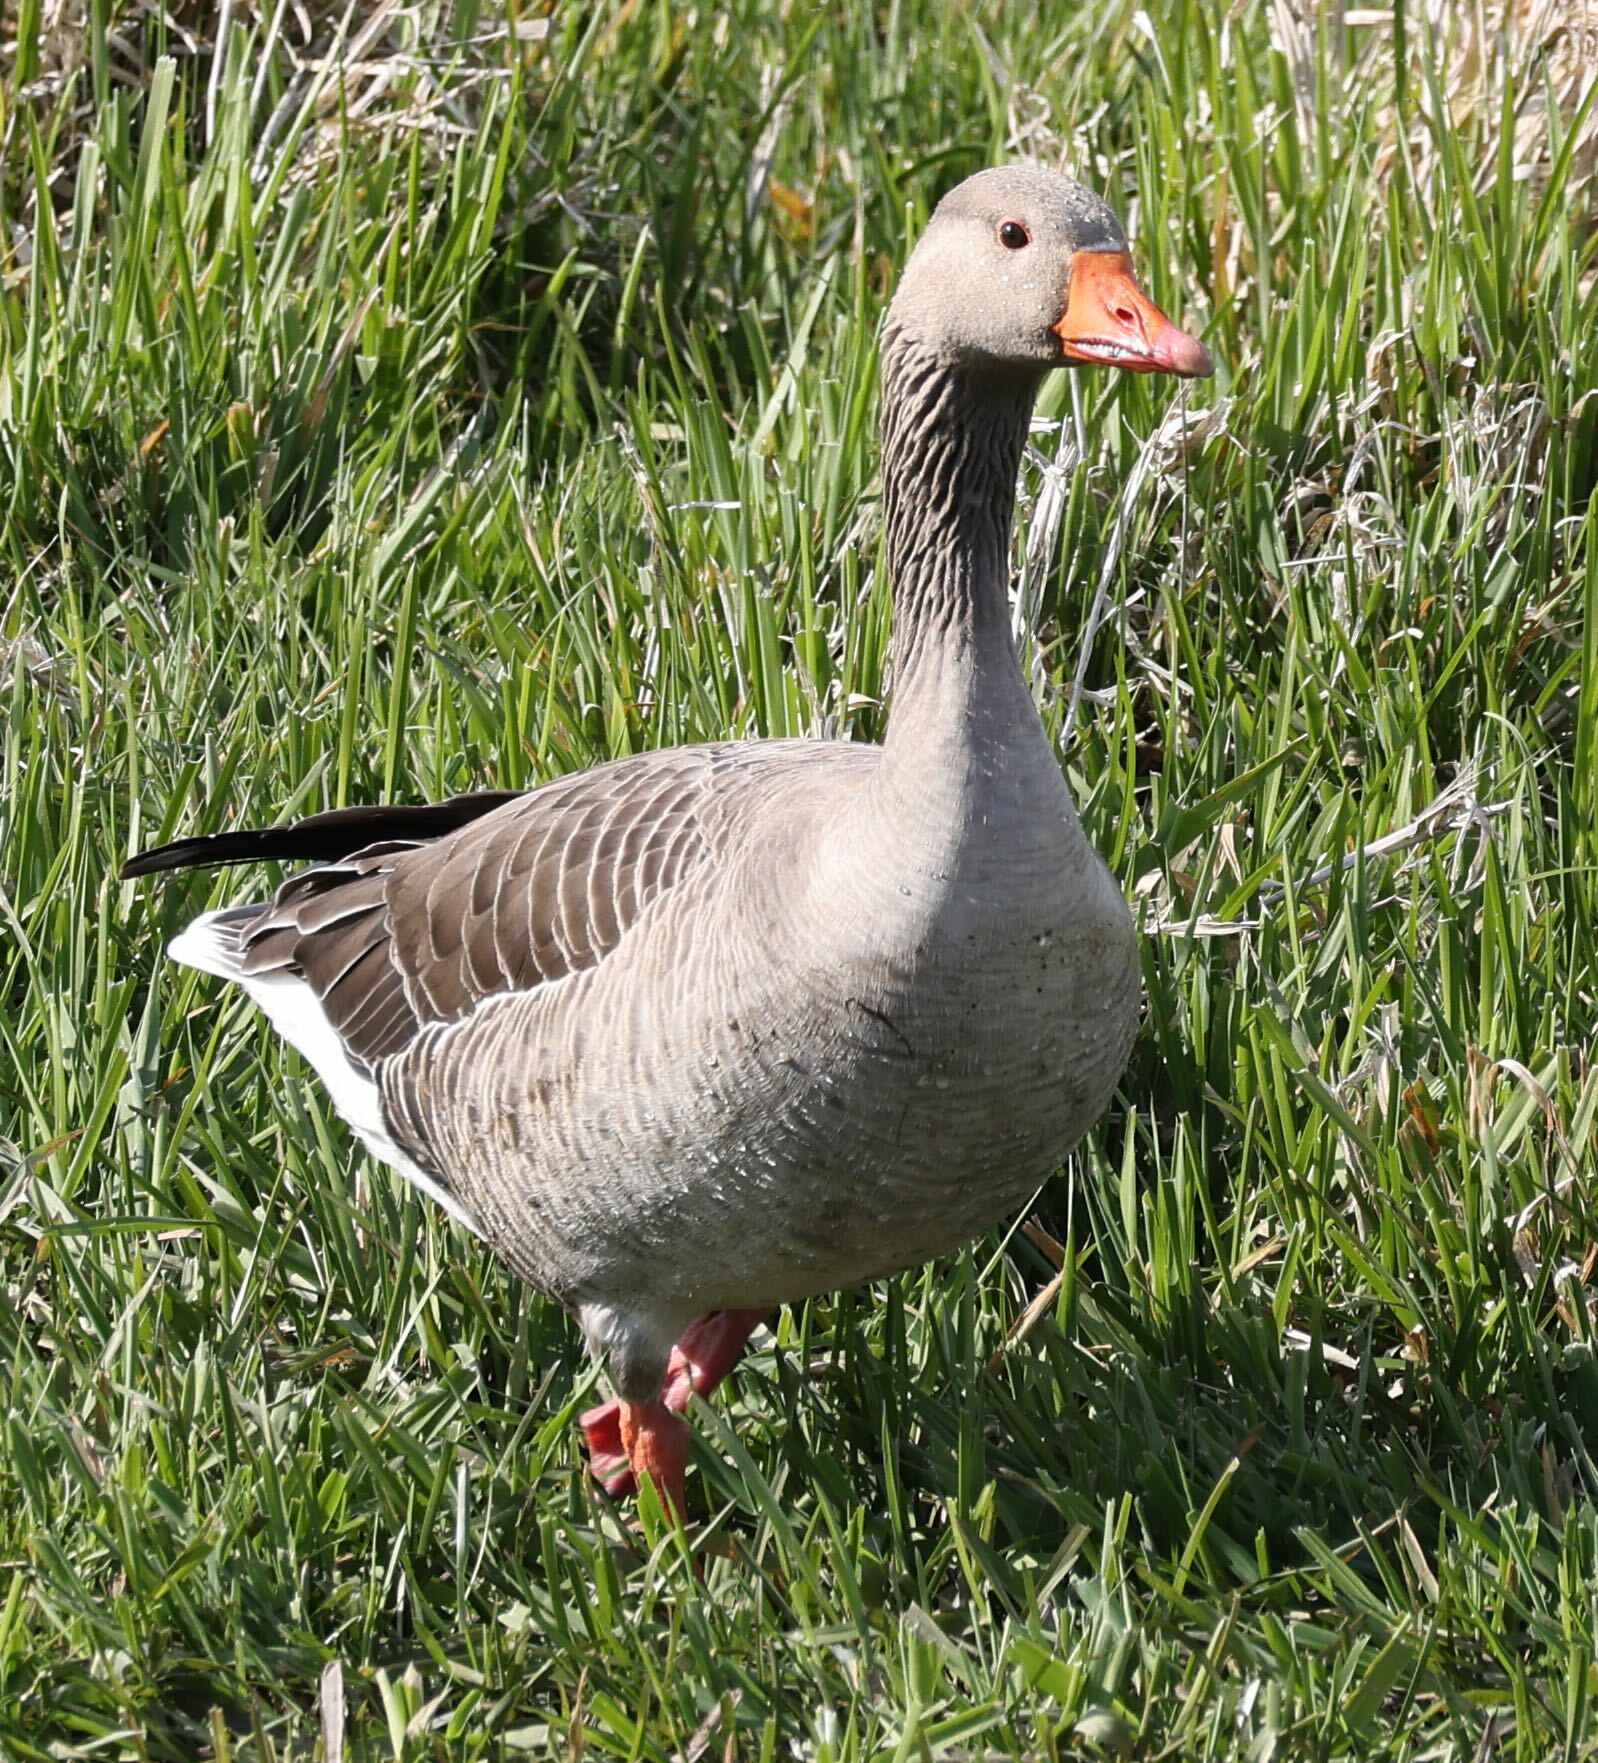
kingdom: Animalia
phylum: Chordata
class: Aves
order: Anseriformes
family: Anatidae
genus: Anser
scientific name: Anser anser
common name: Greylag goose
